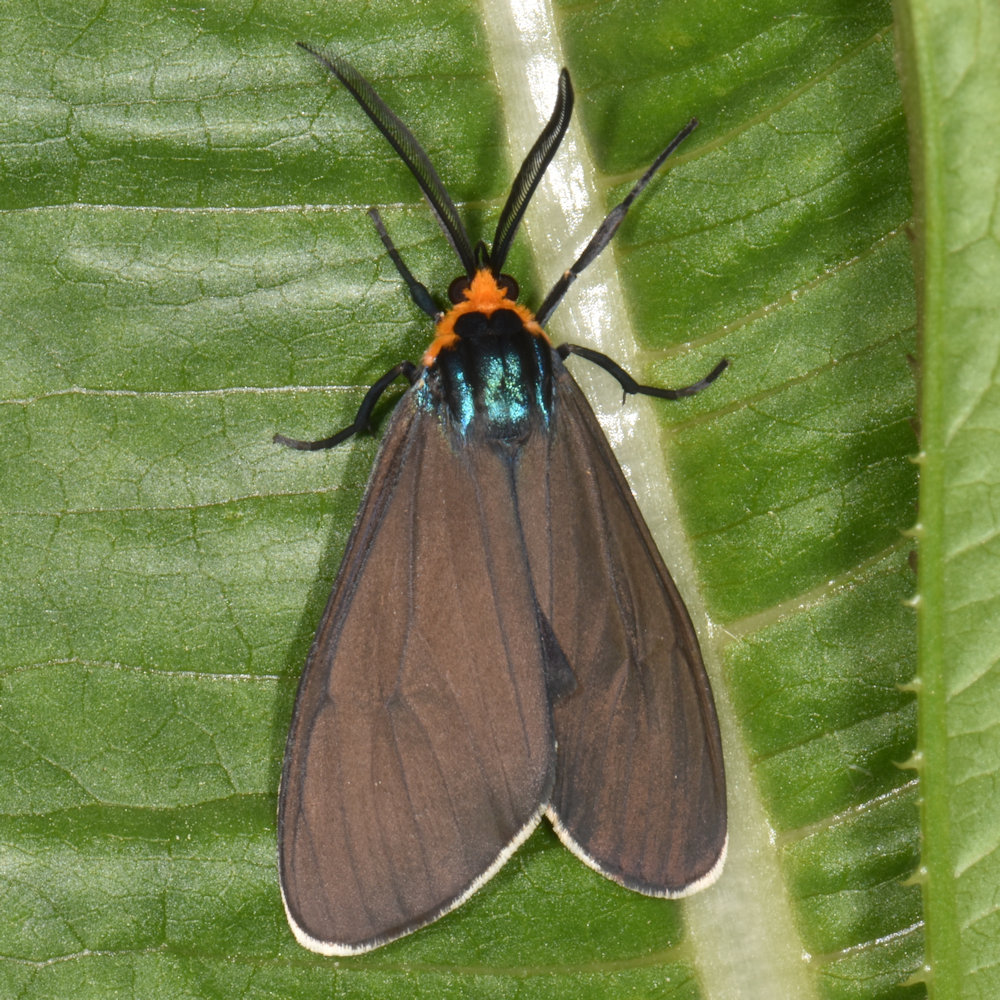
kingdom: Animalia
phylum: Arthropoda
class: Insecta
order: Lepidoptera
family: Erebidae
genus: Ctenucha
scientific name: Ctenucha virginica
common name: Virginia ctenucha moth
